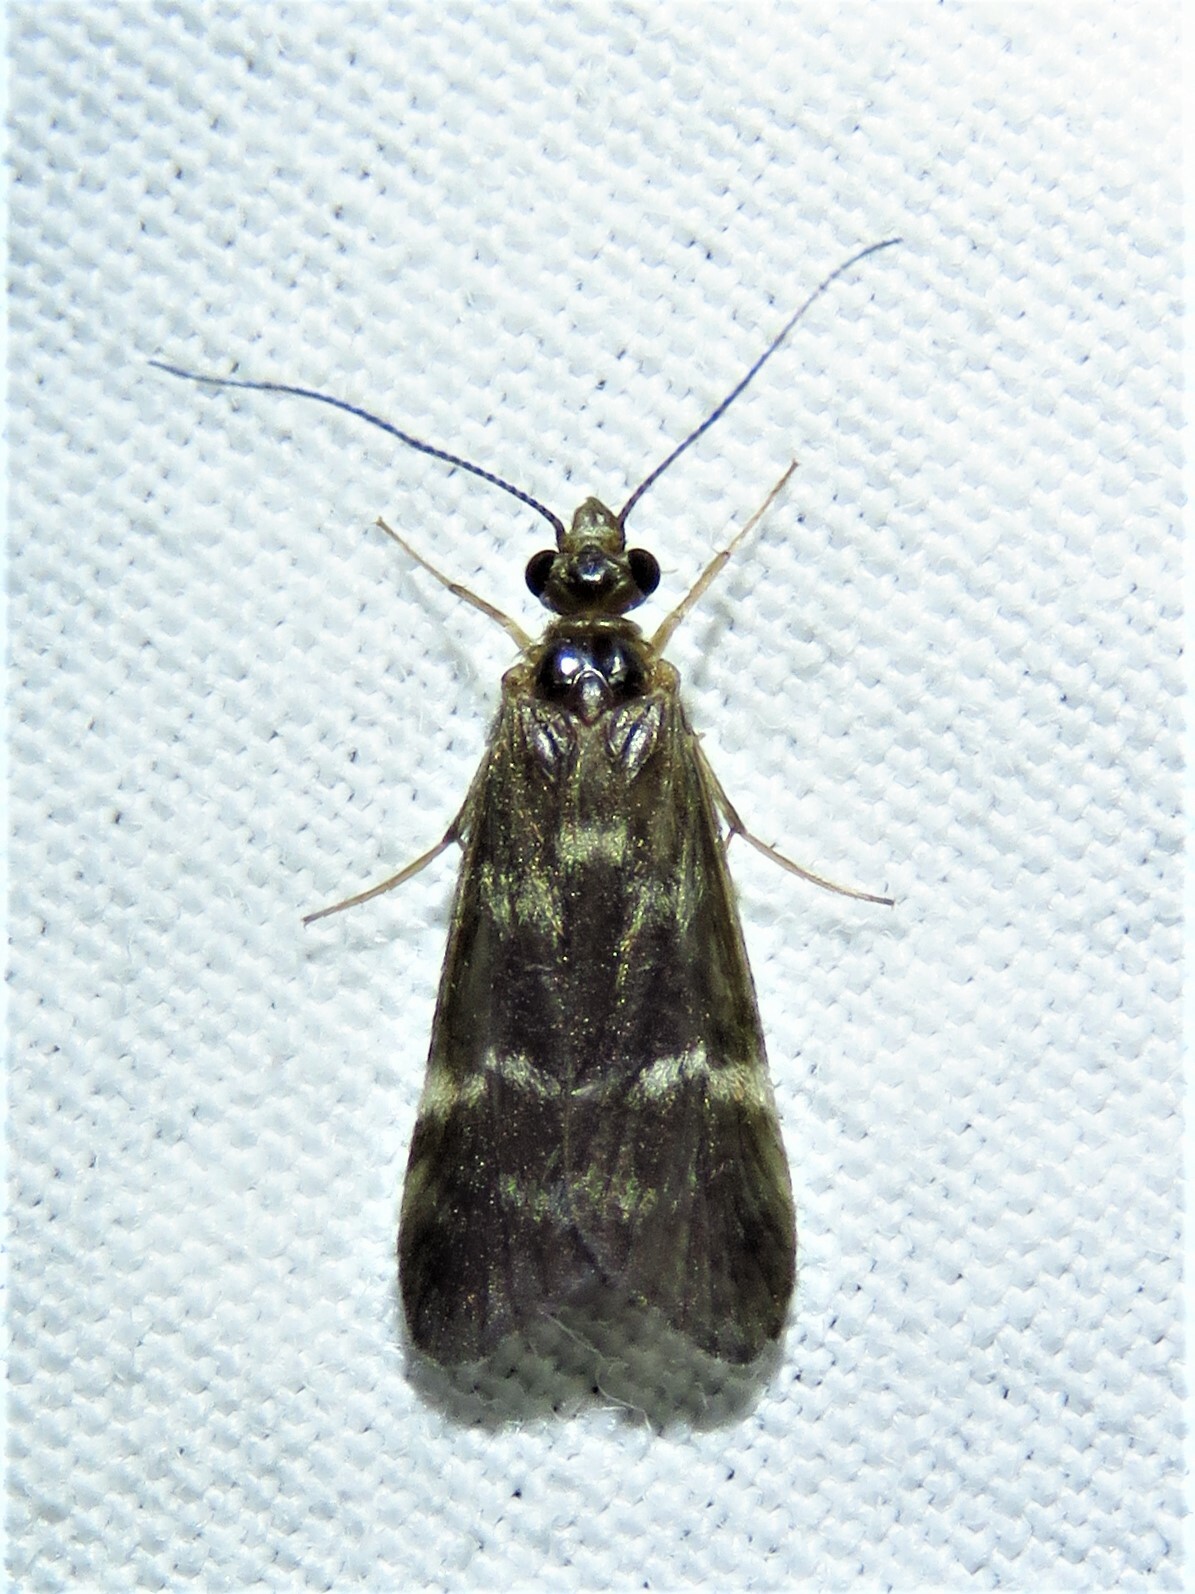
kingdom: Animalia
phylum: Arthropoda
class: Insecta
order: Trichoptera
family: Hydropsychidae
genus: Smicridea
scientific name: Smicridea fasciatella
